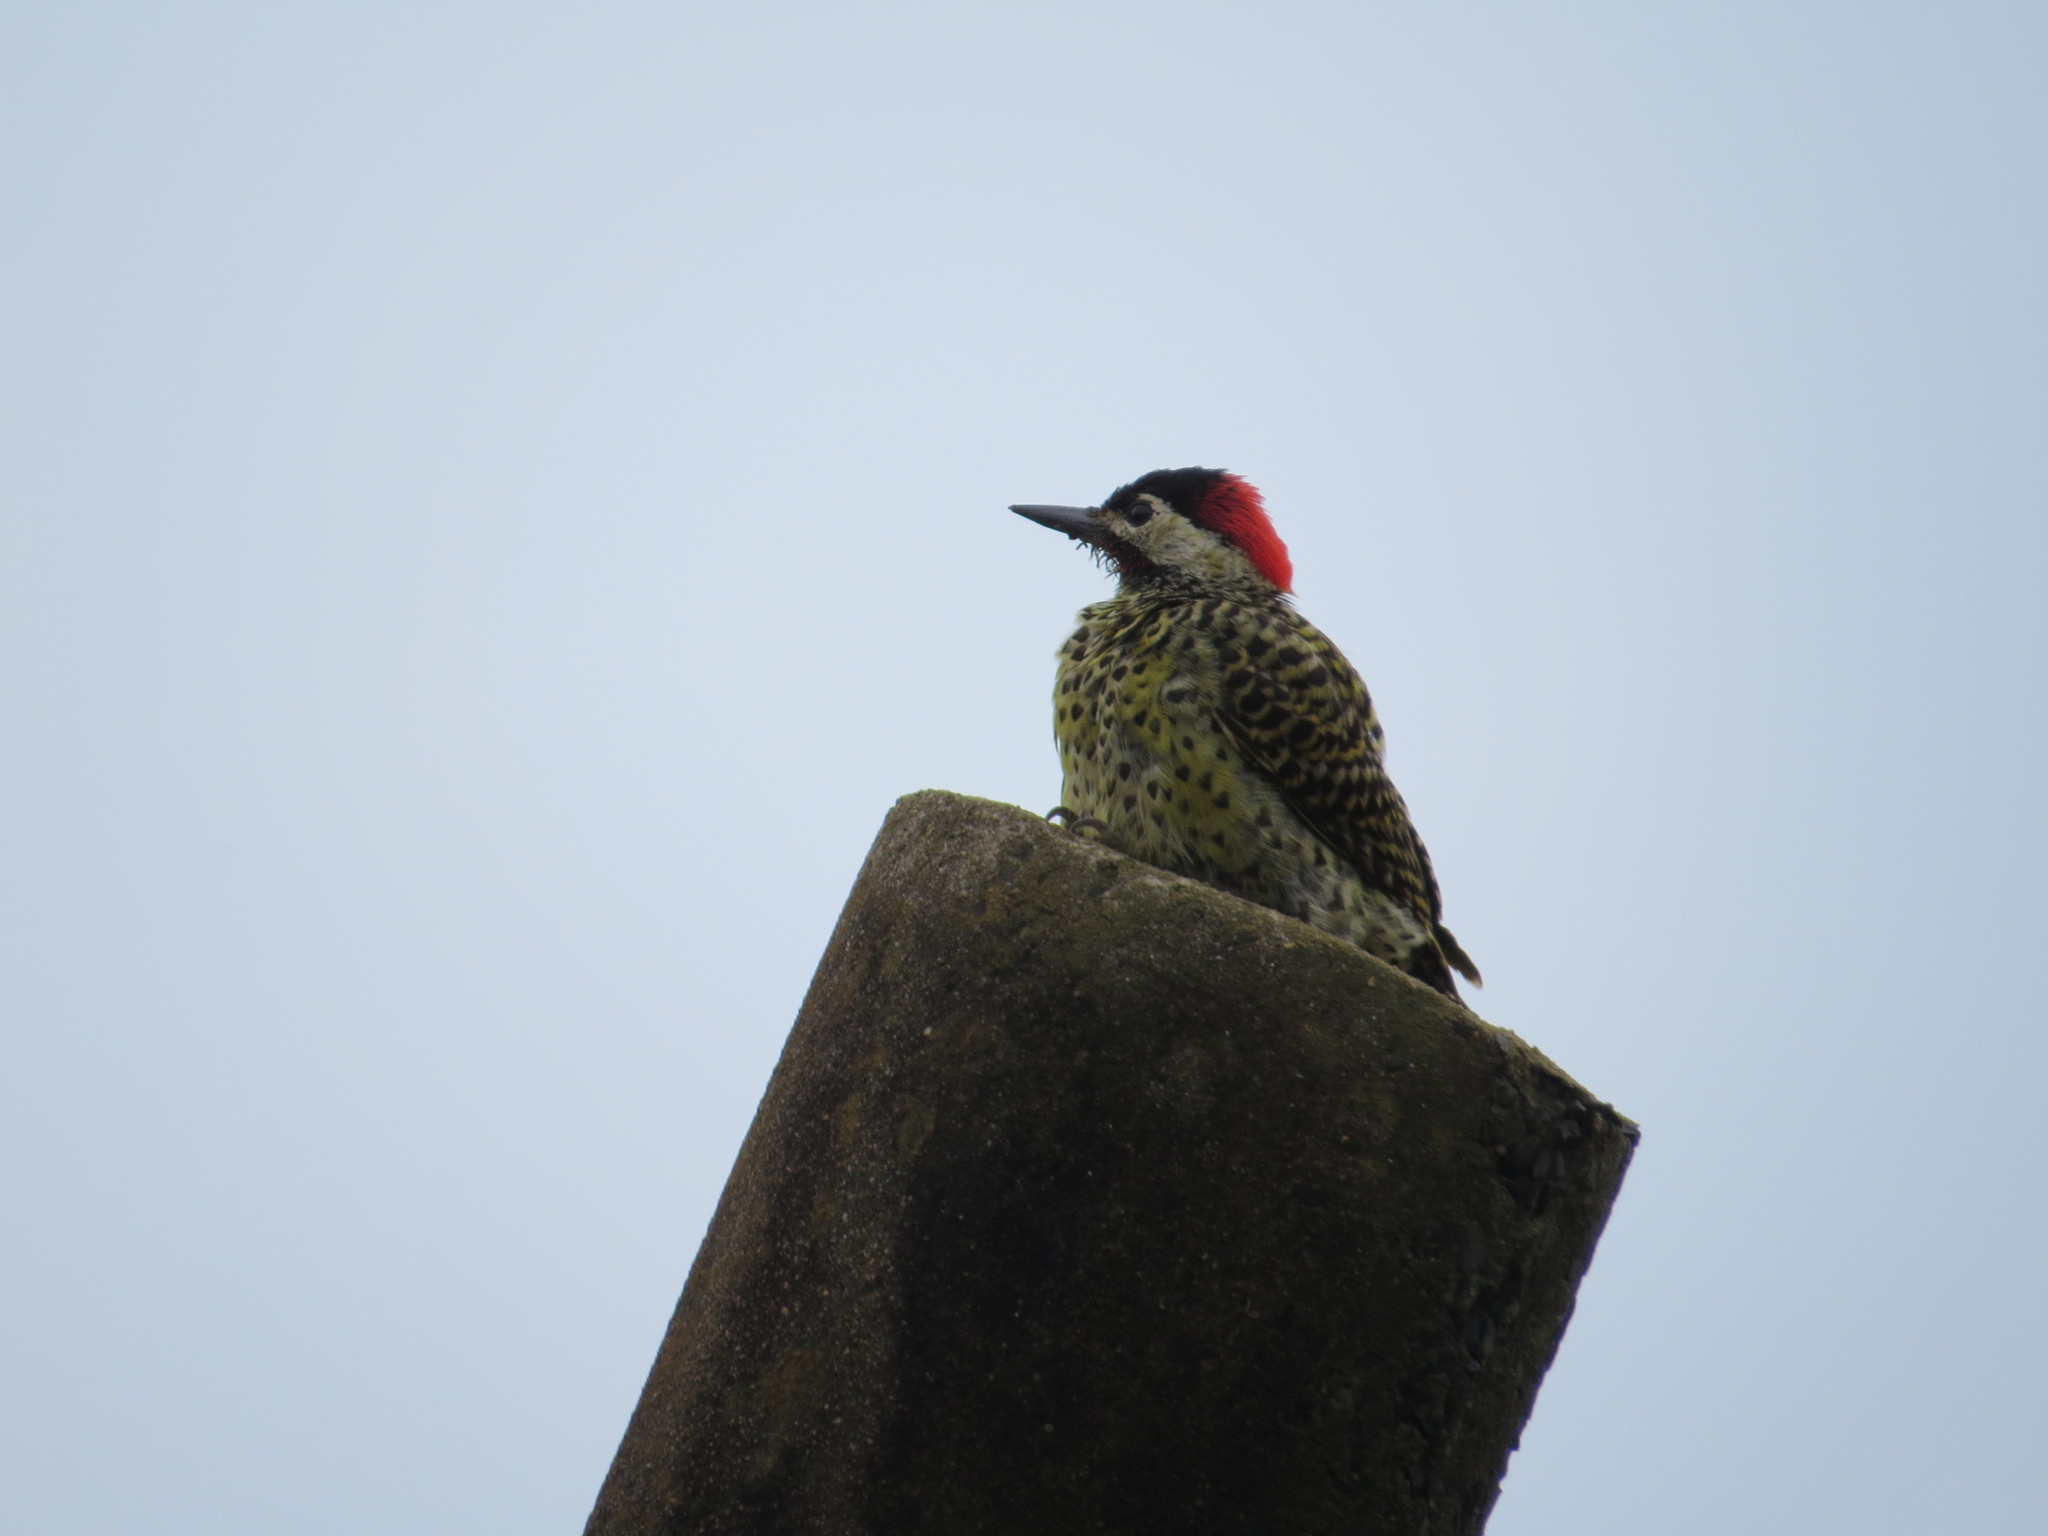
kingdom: Animalia
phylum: Chordata
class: Aves
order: Piciformes
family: Picidae
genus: Colaptes
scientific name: Colaptes melanochloros
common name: Green-barred woodpecker
